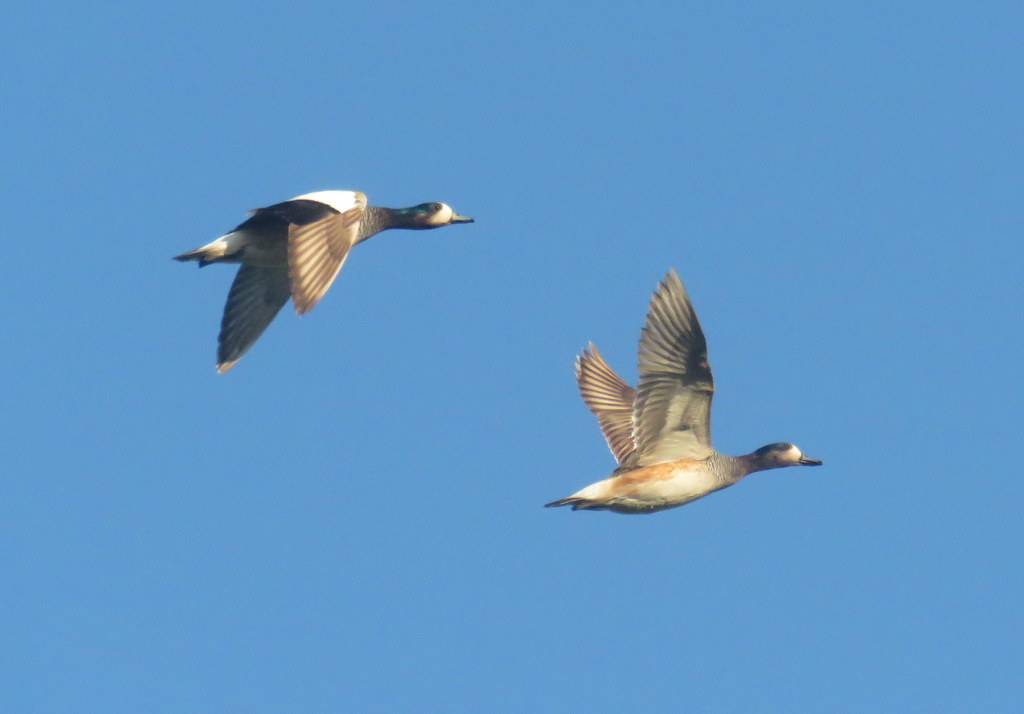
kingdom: Animalia
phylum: Chordata
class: Aves
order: Anseriformes
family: Anatidae
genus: Mareca
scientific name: Mareca sibilatrix
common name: Chiloe wigeon
